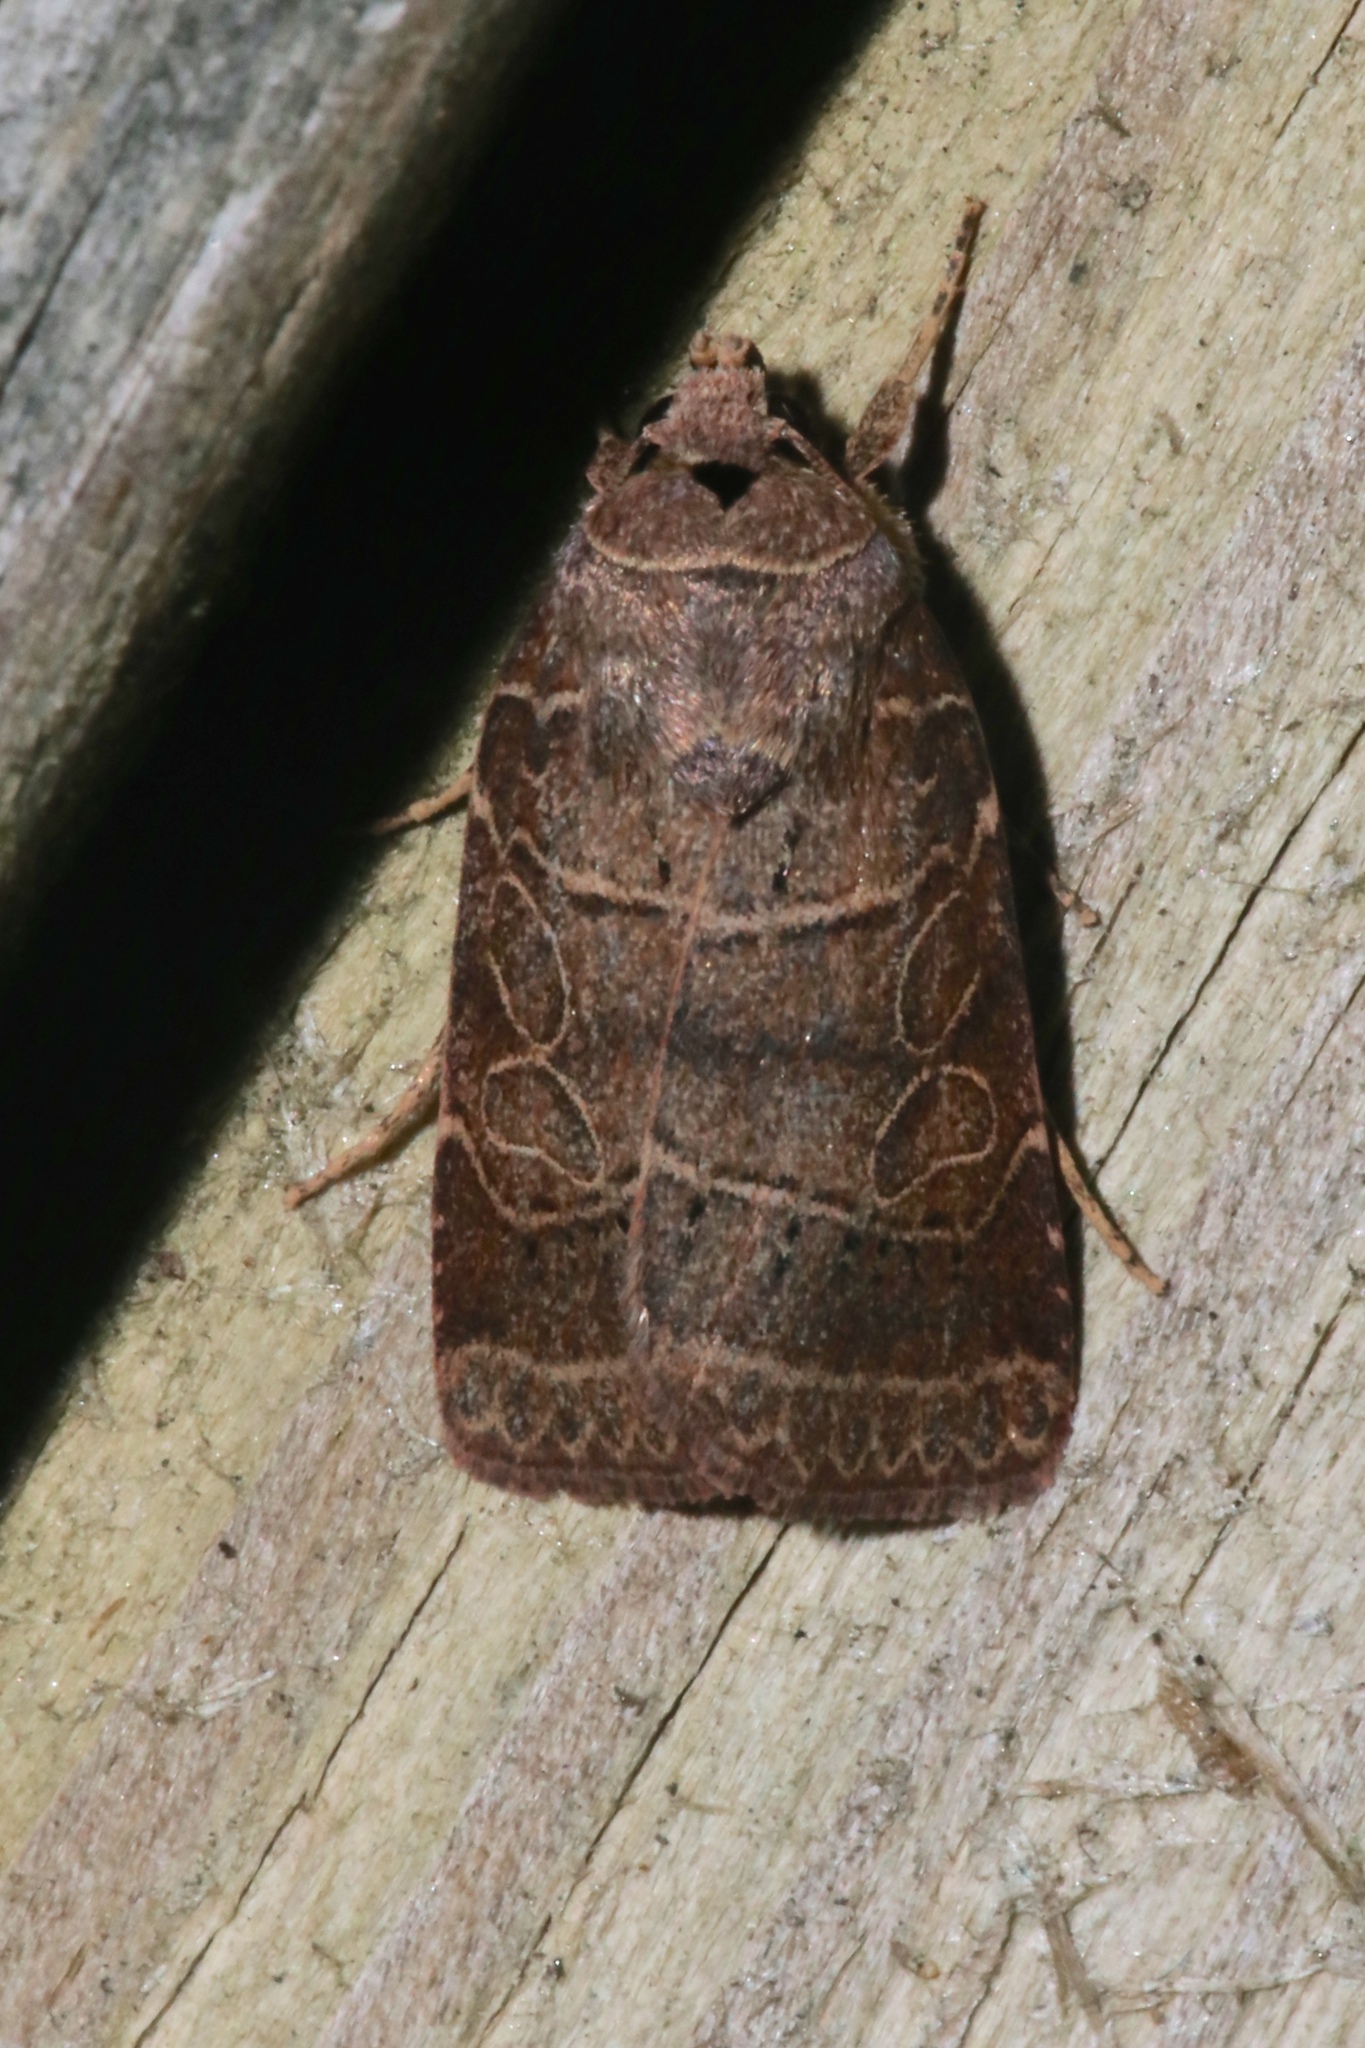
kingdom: Animalia
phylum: Arthropoda
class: Insecta
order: Lepidoptera
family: Noctuidae
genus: Orthodes
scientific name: Orthodes majuscula
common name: Rustic quaker
